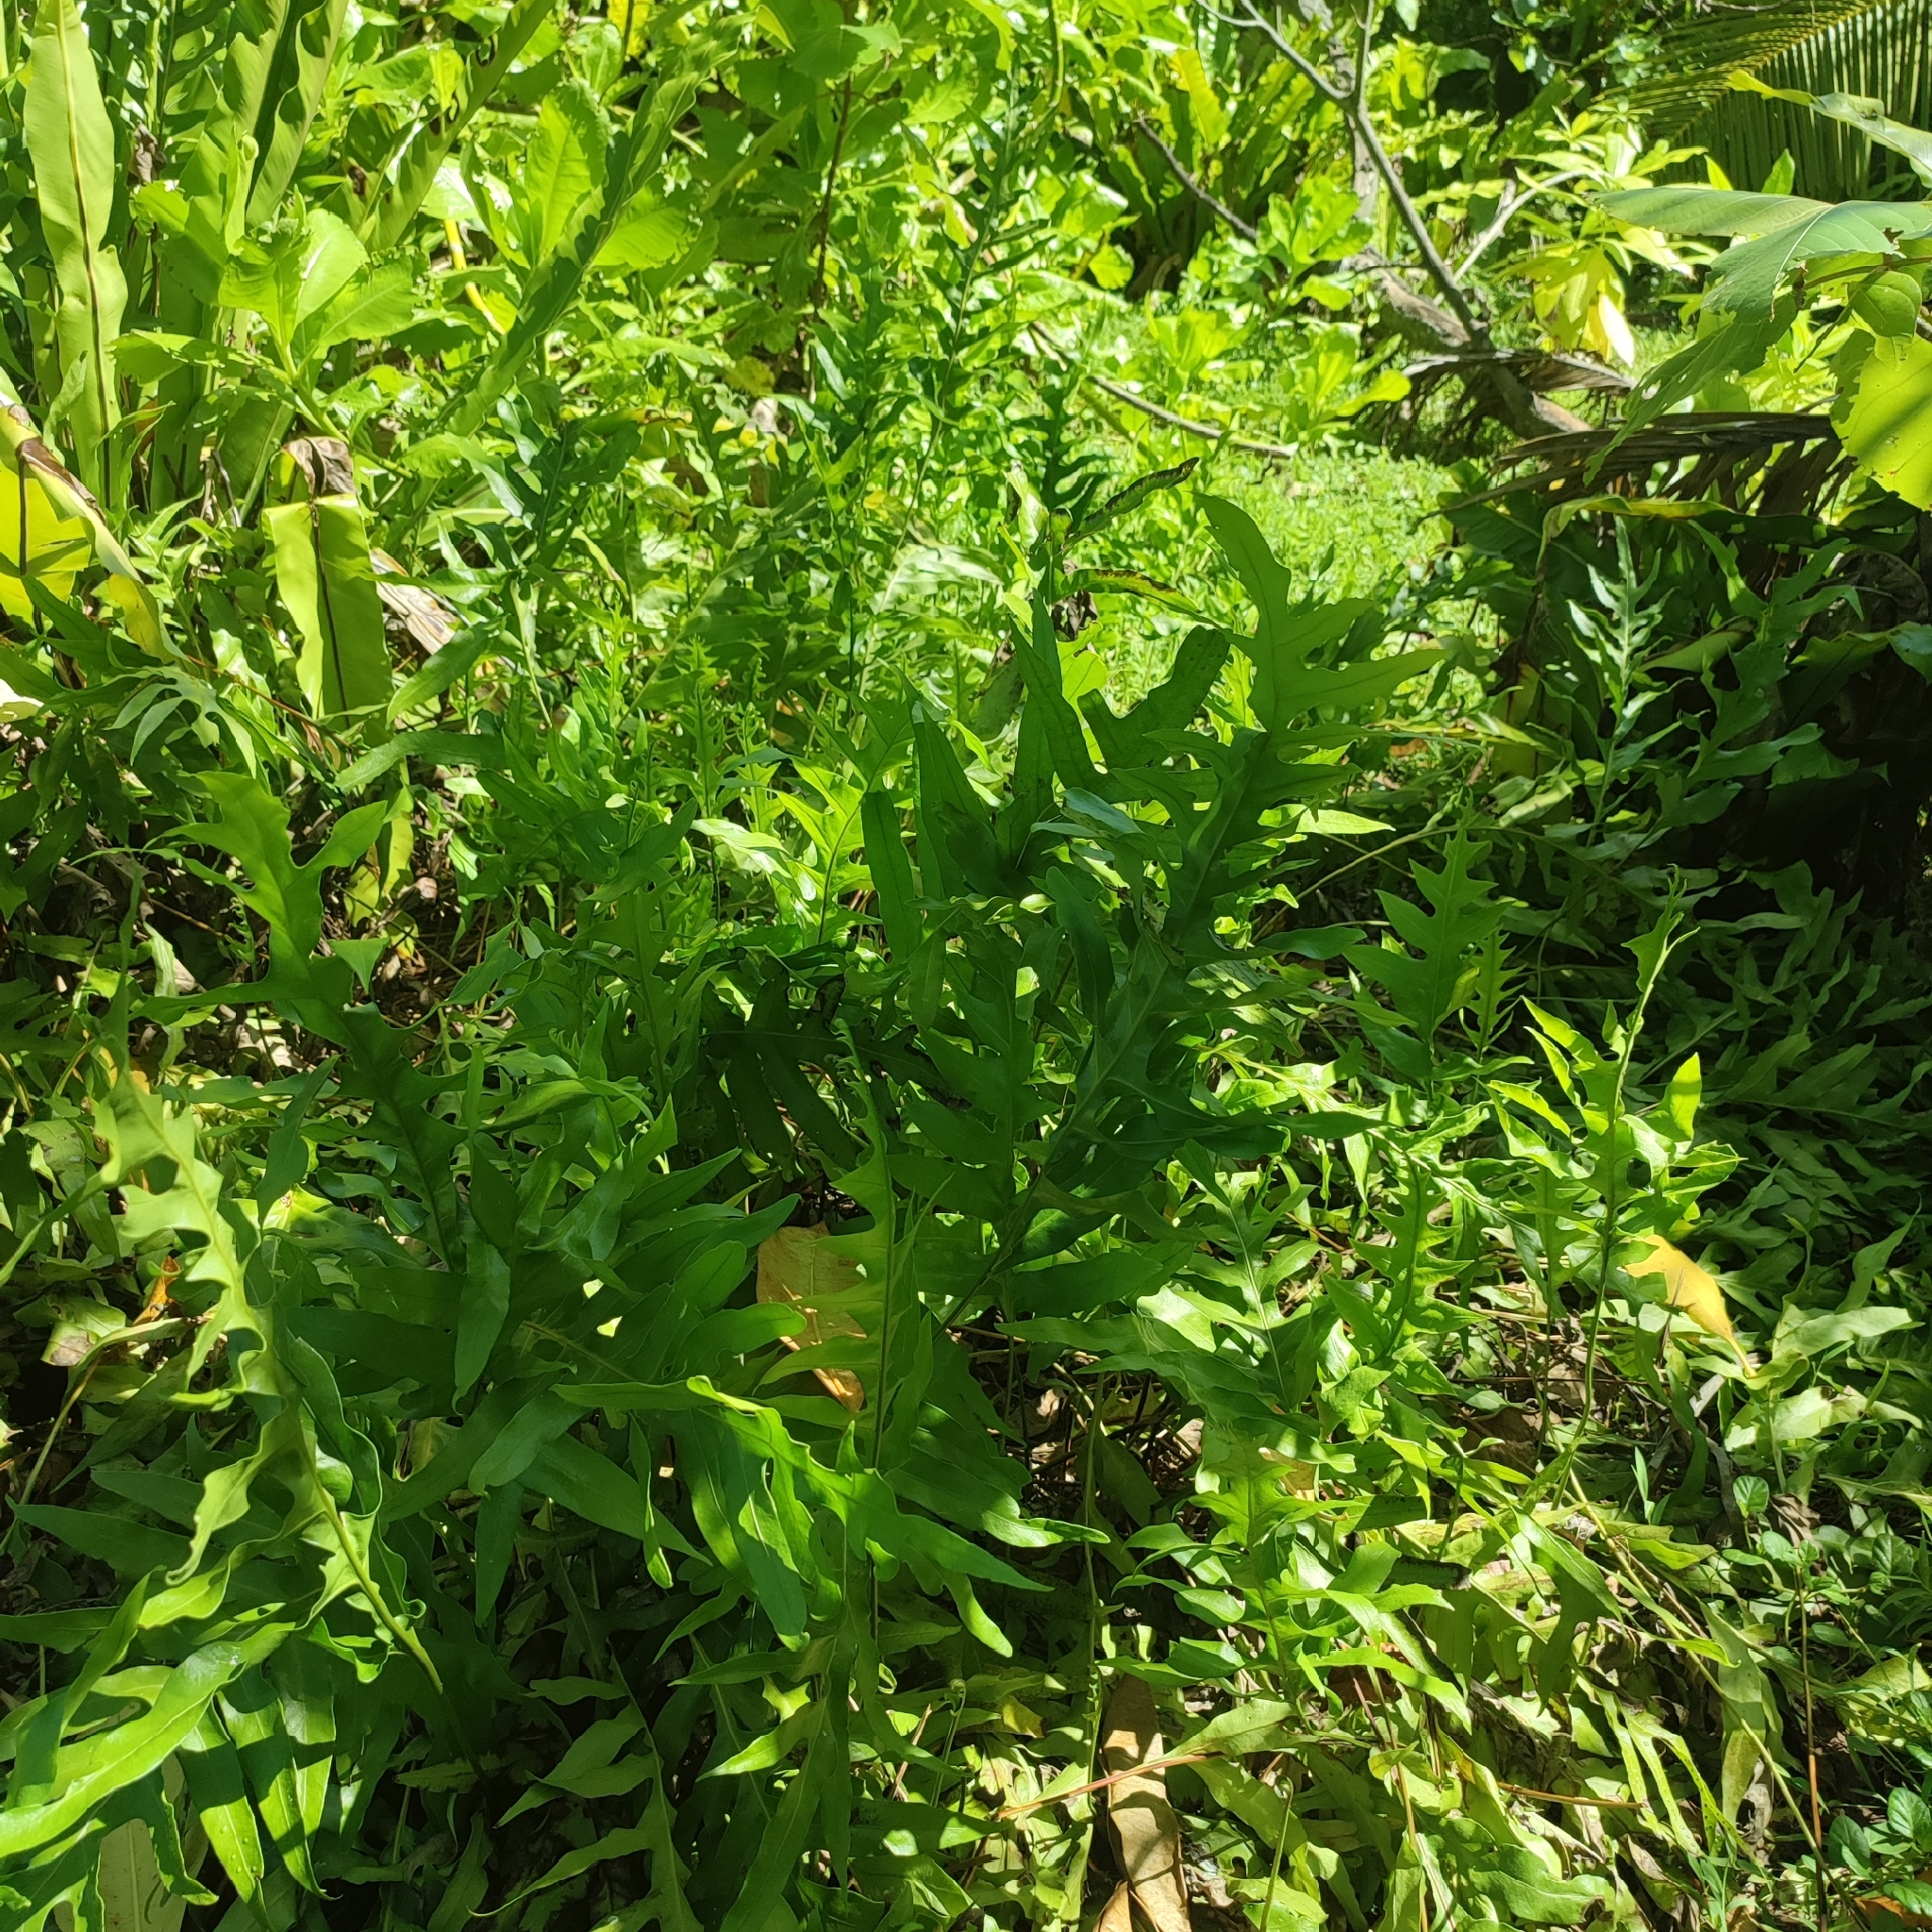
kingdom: Plantae
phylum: Tracheophyta
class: Polypodiopsida
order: Polypodiales
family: Polypodiaceae
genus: Microsorum
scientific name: Microsorum scolopendria
